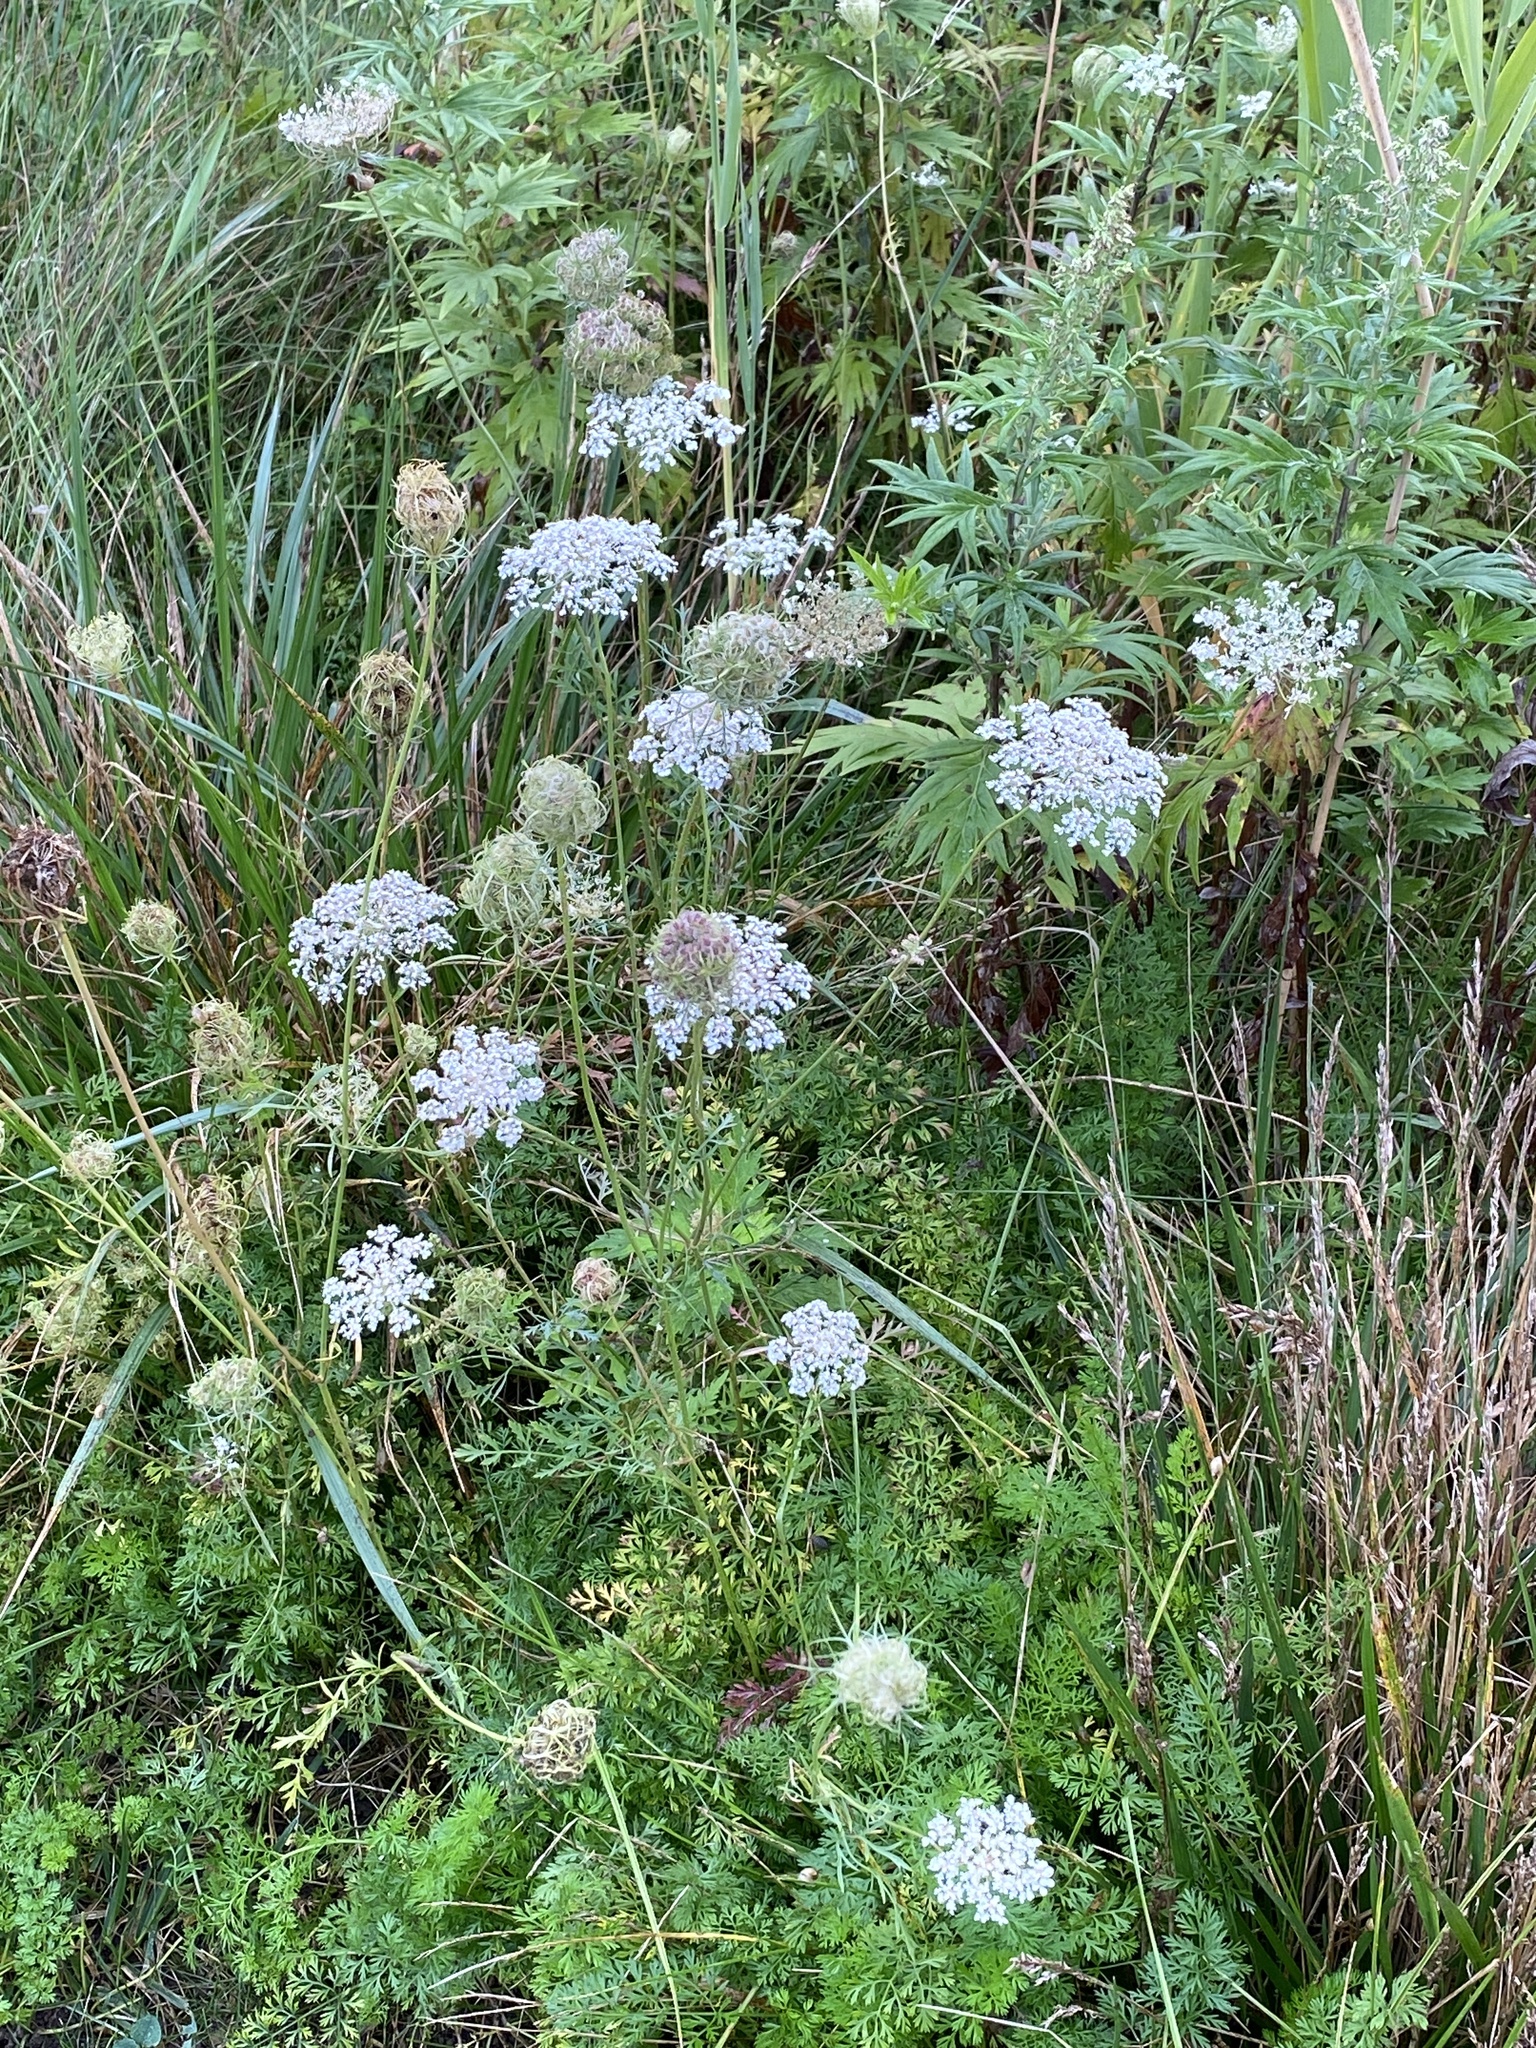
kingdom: Plantae
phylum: Tracheophyta
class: Magnoliopsida
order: Apiales
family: Apiaceae
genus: Daucus
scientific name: Daucus carota
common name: Wild carrot
